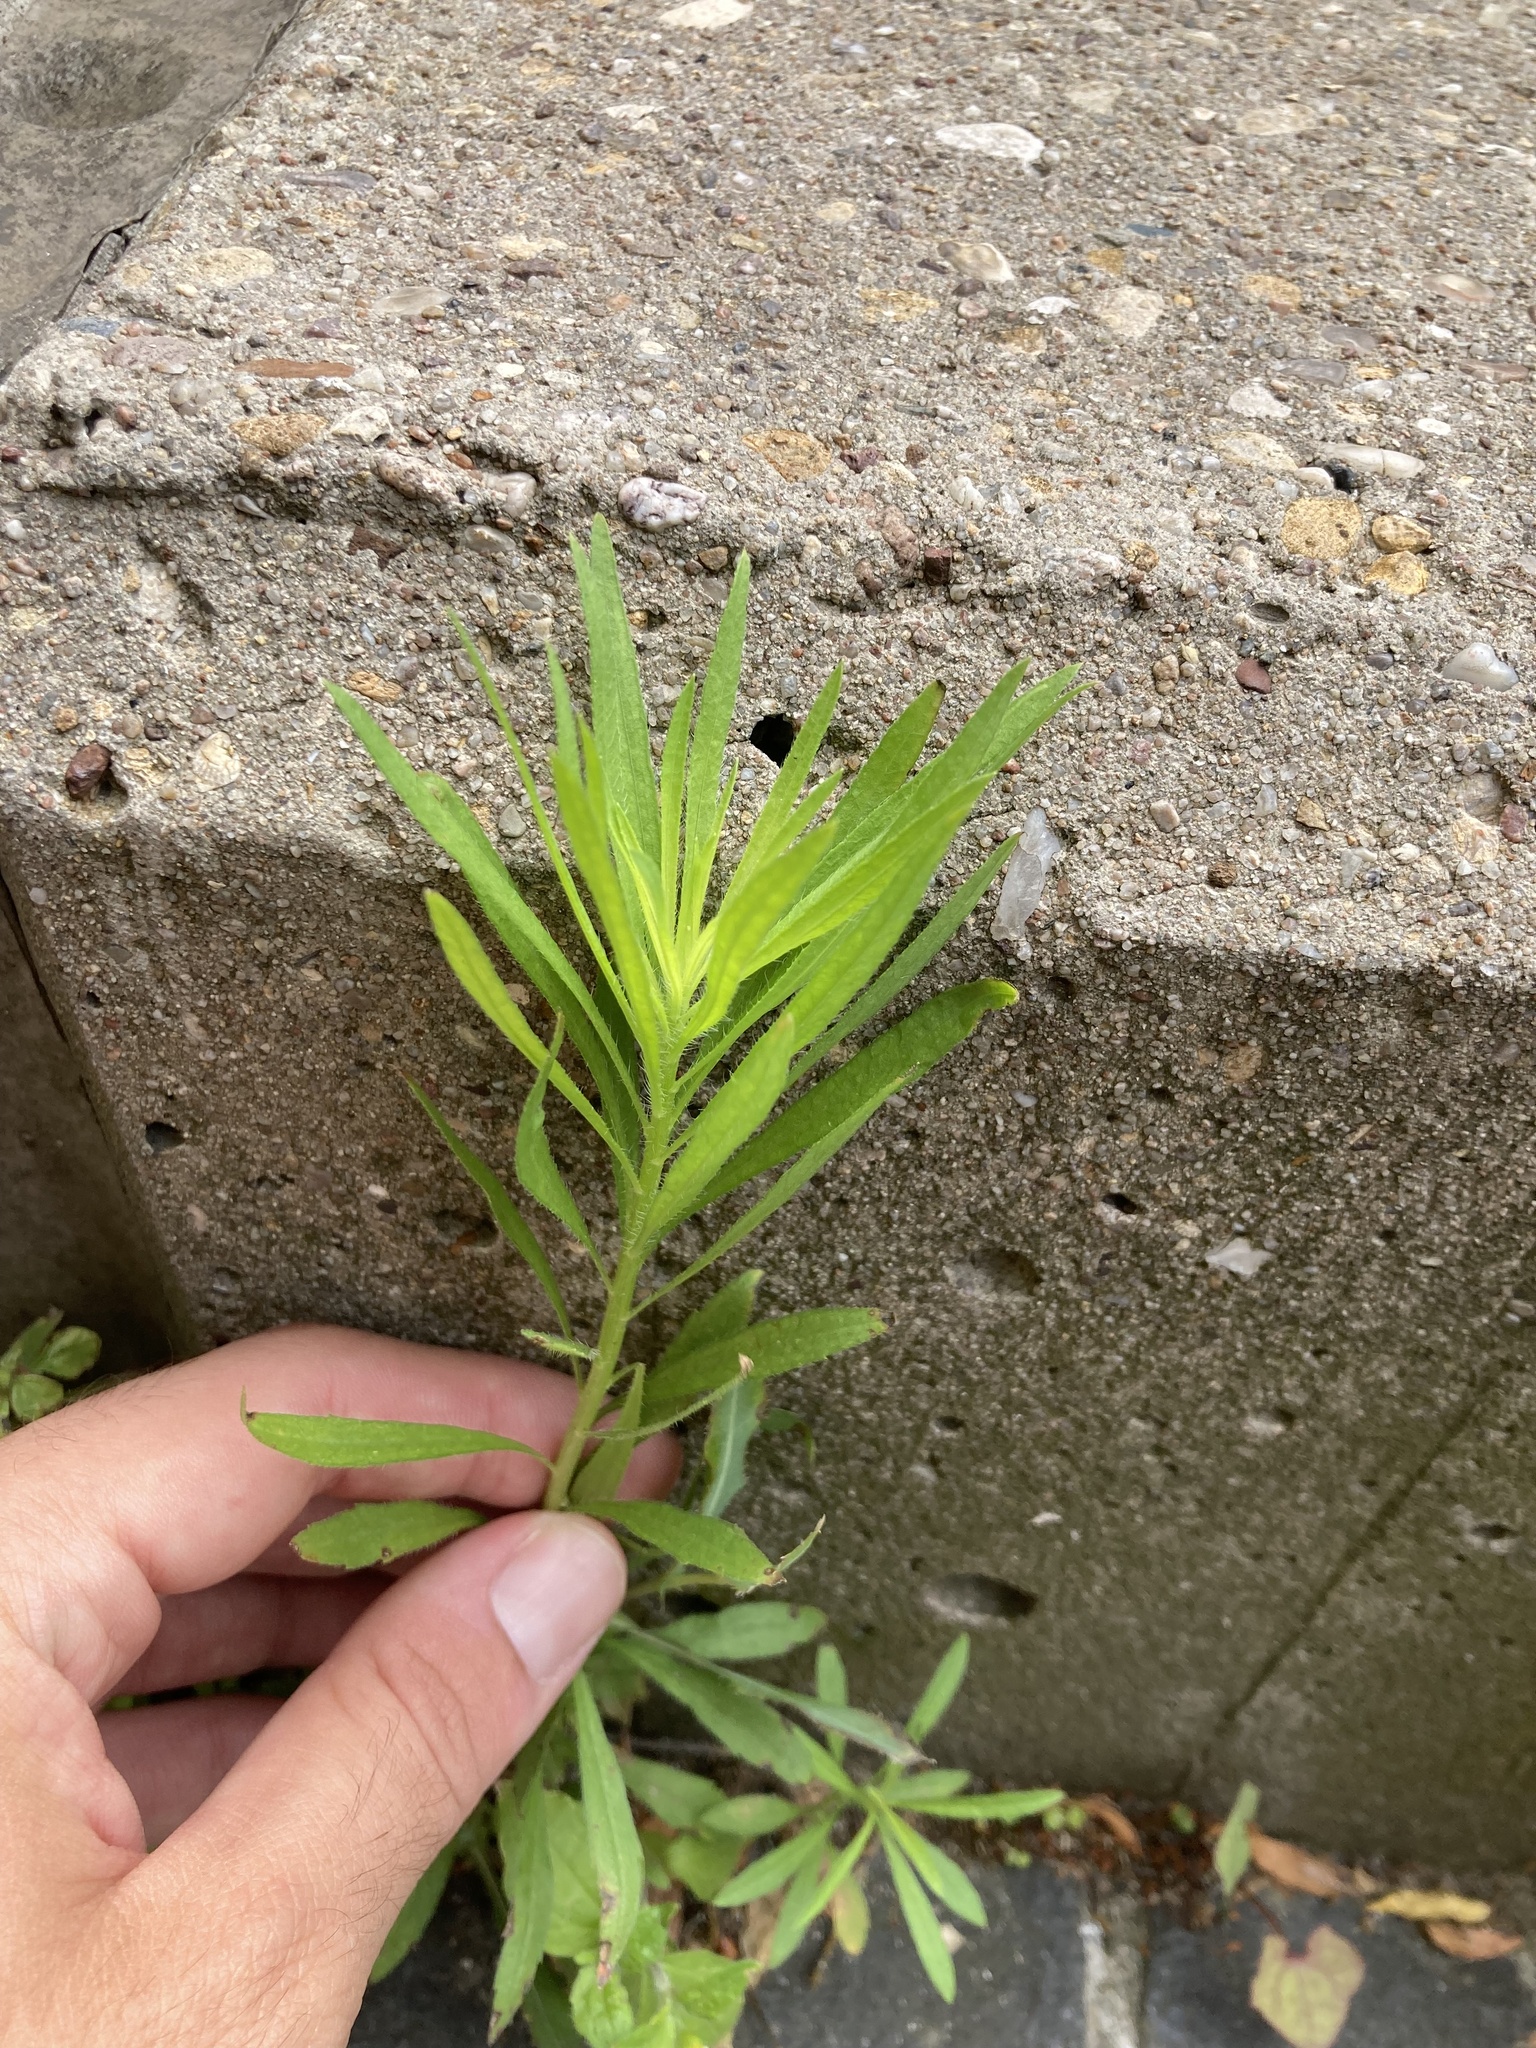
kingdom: Plantae
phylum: Tracheophyta
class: Magnoliopsida
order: Asterales
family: Asteraceae
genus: Erigeron
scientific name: Erigeron canadensis
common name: Canadian fleabane
